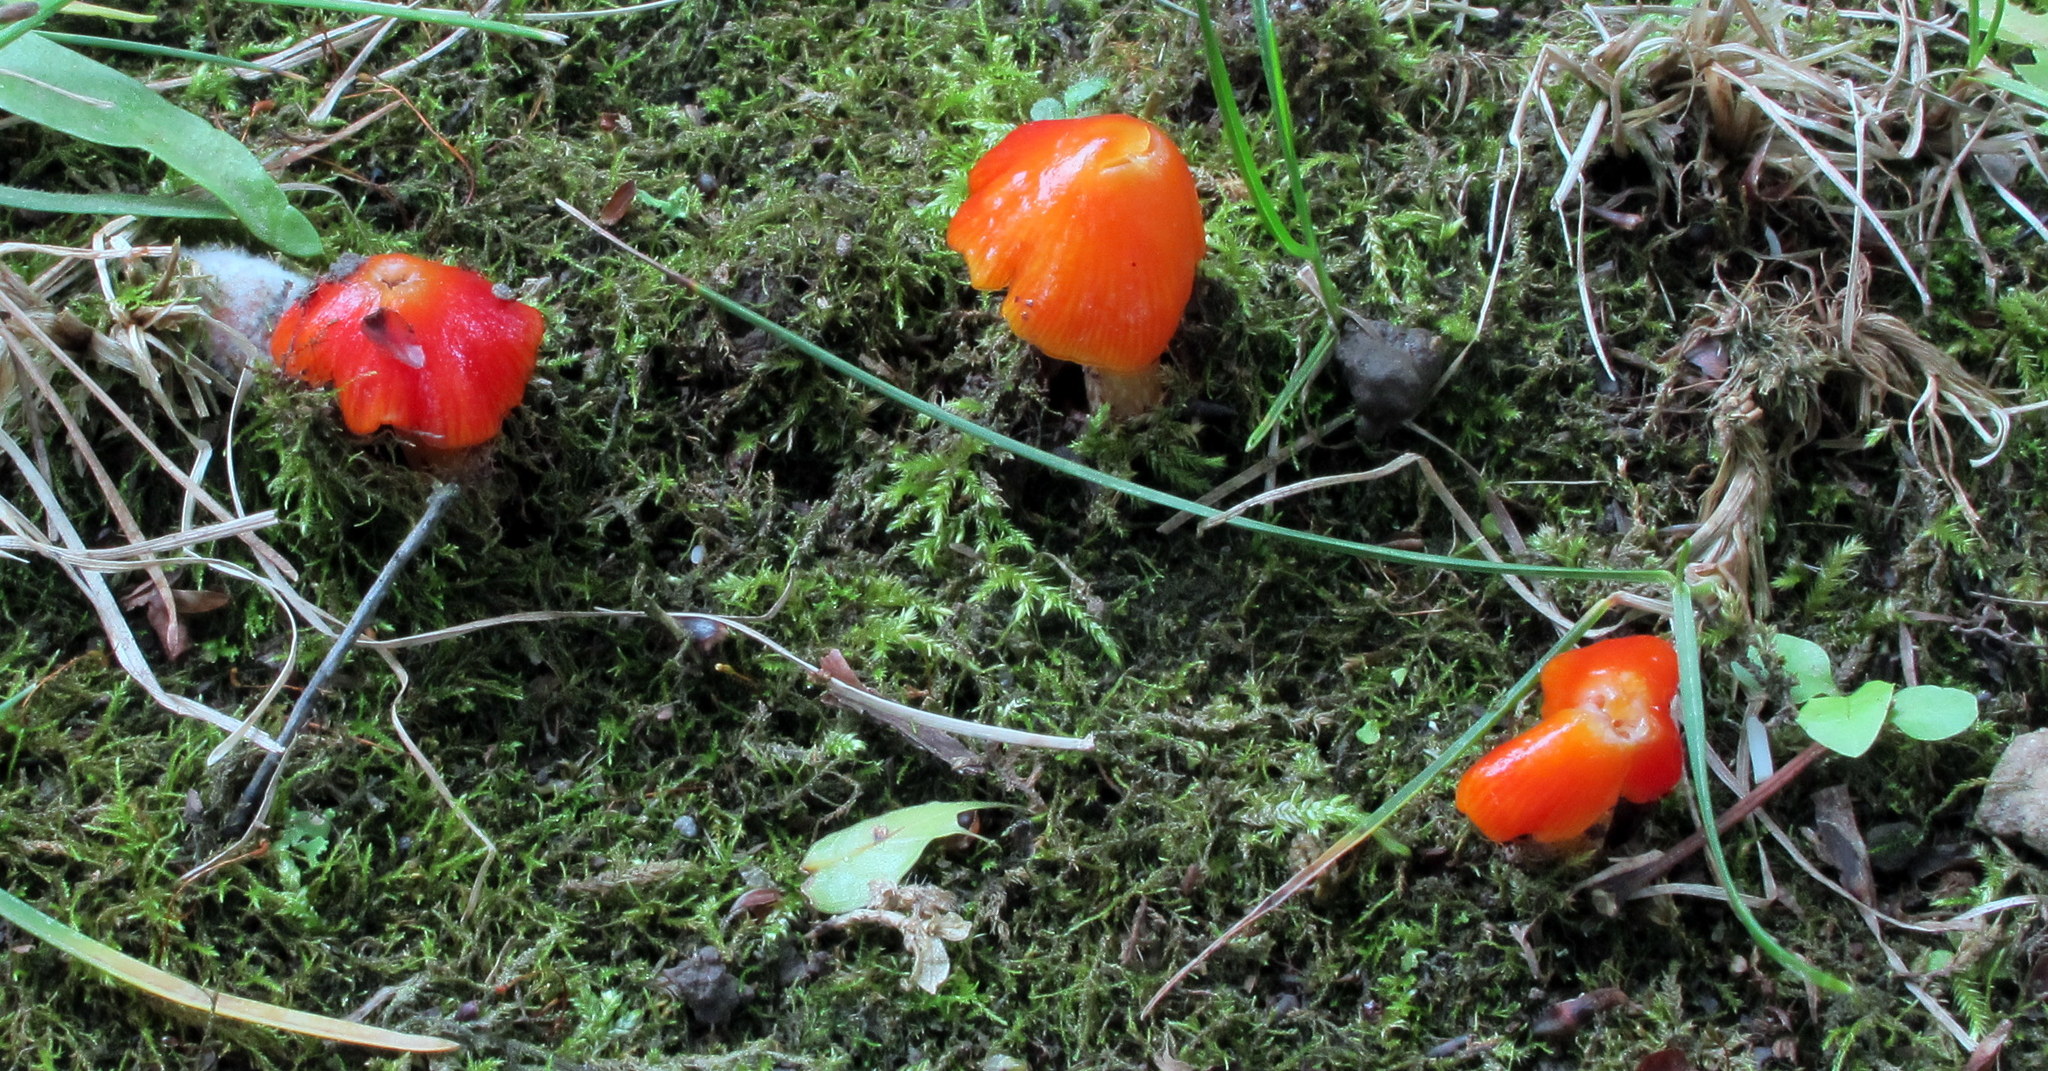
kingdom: Fungi
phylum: Basidiomycota
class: Agaricomycetes
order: Agaricales
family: Hygrophoraceae
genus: Hygrocybe
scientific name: Hygrocybe cuspidata
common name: Candy apple waxy cap
